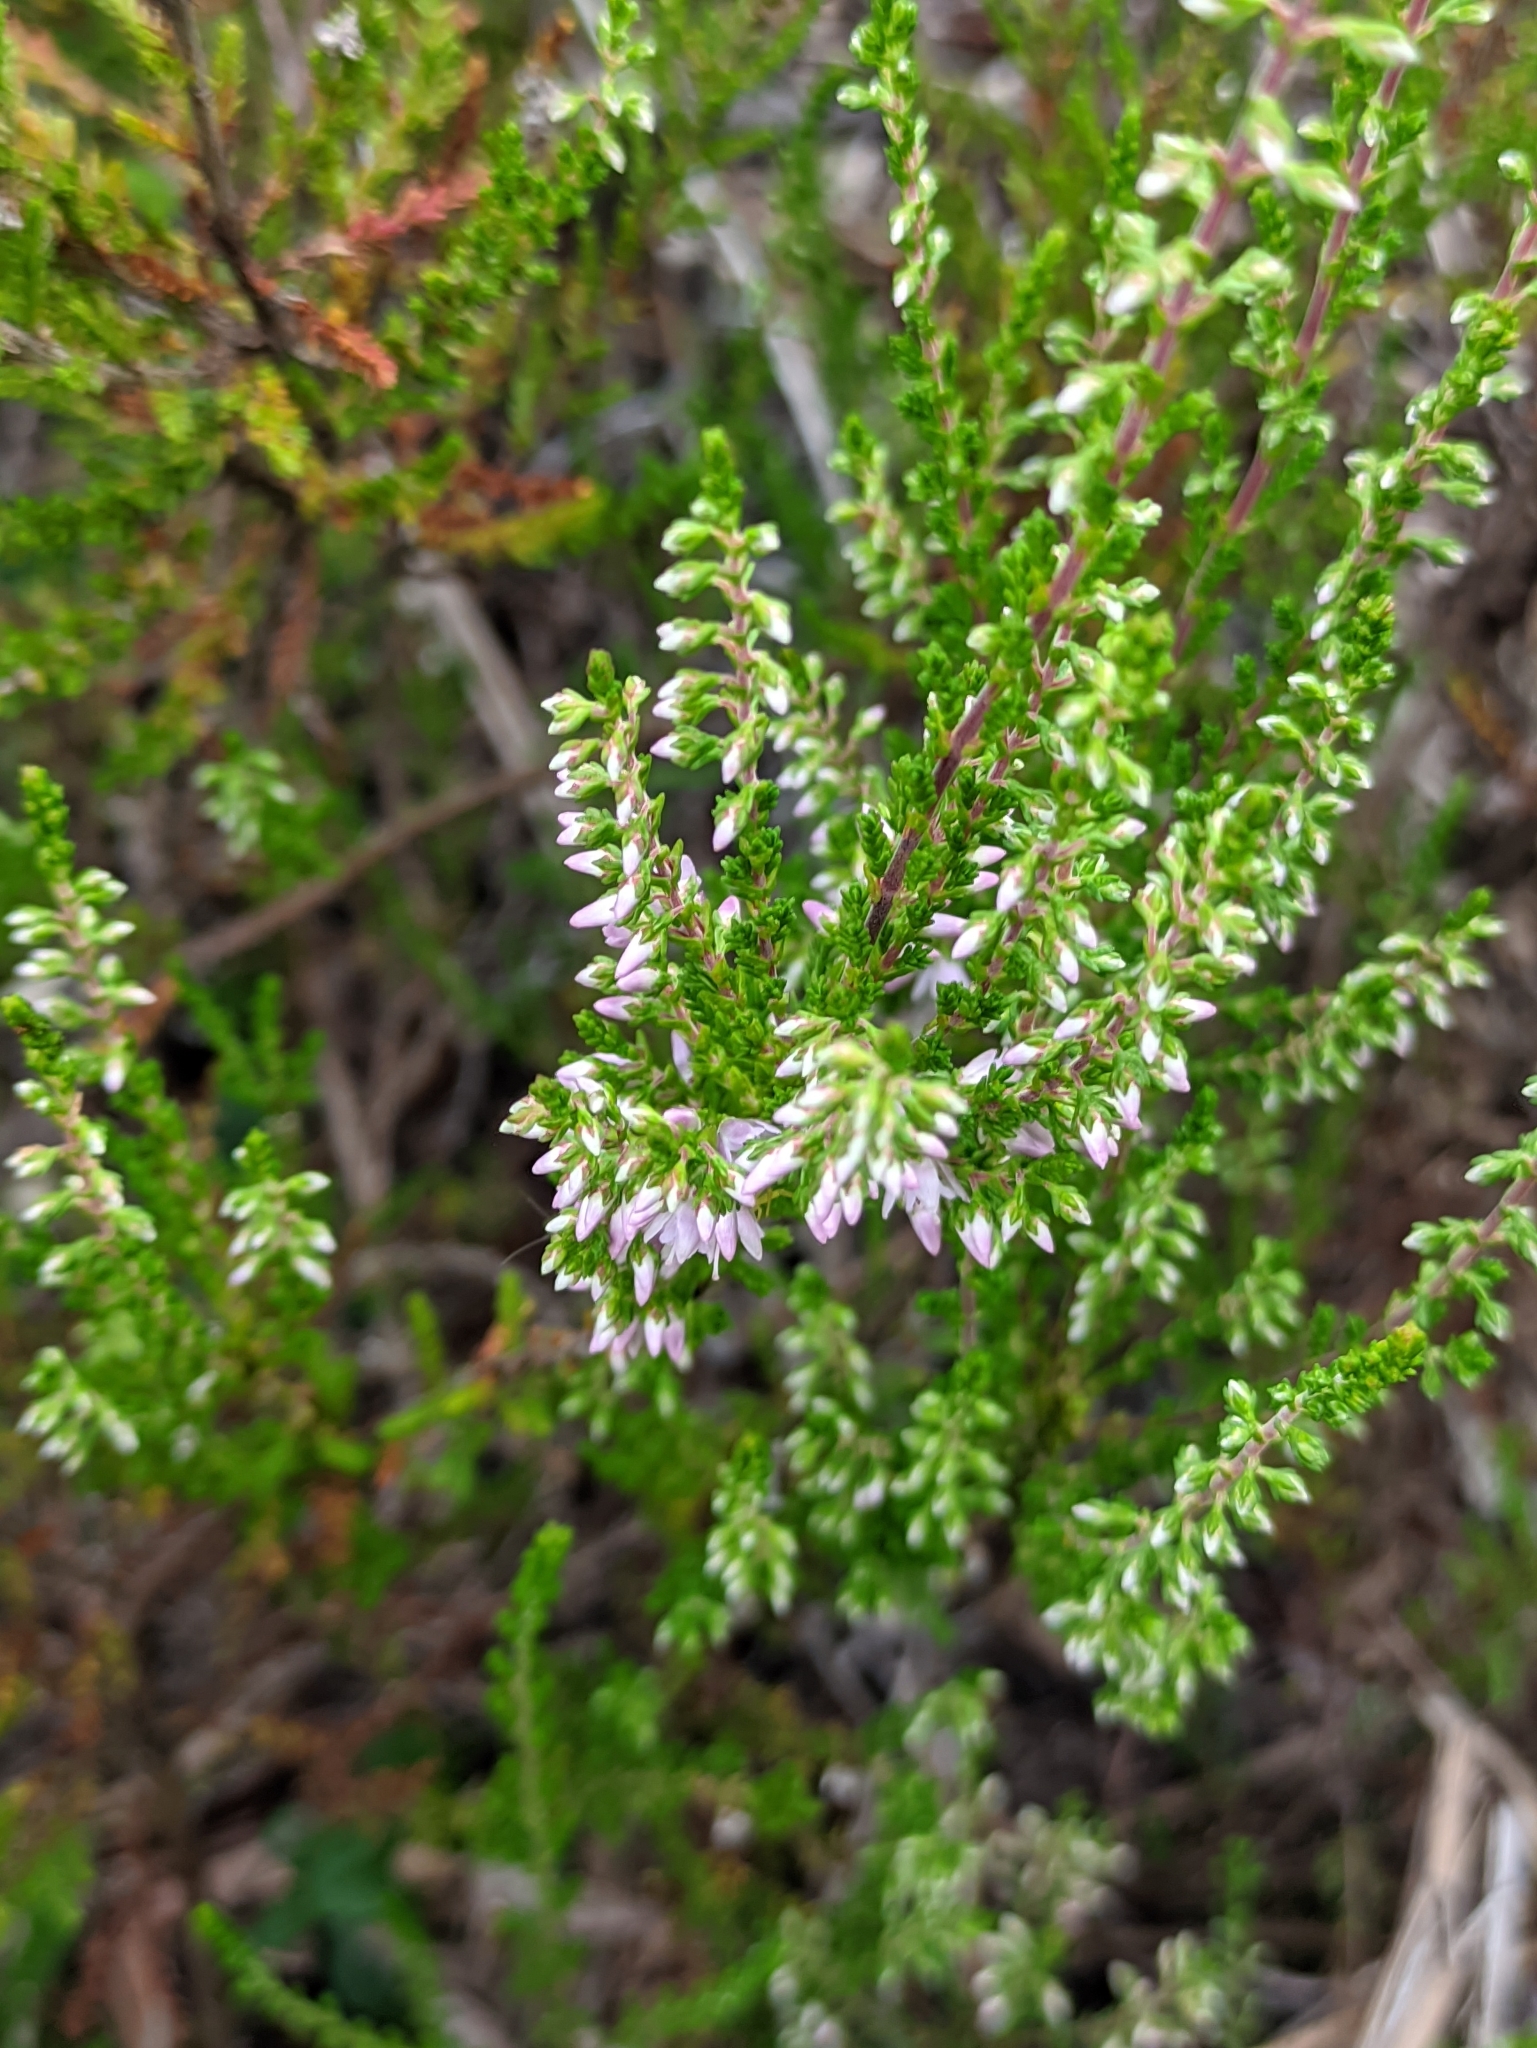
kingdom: Plantae
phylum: Tracheophyta
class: Magnoliopsida
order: Ericales
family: Ericaceae
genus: Calluna
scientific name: Calluna vulgaris
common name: Heather
